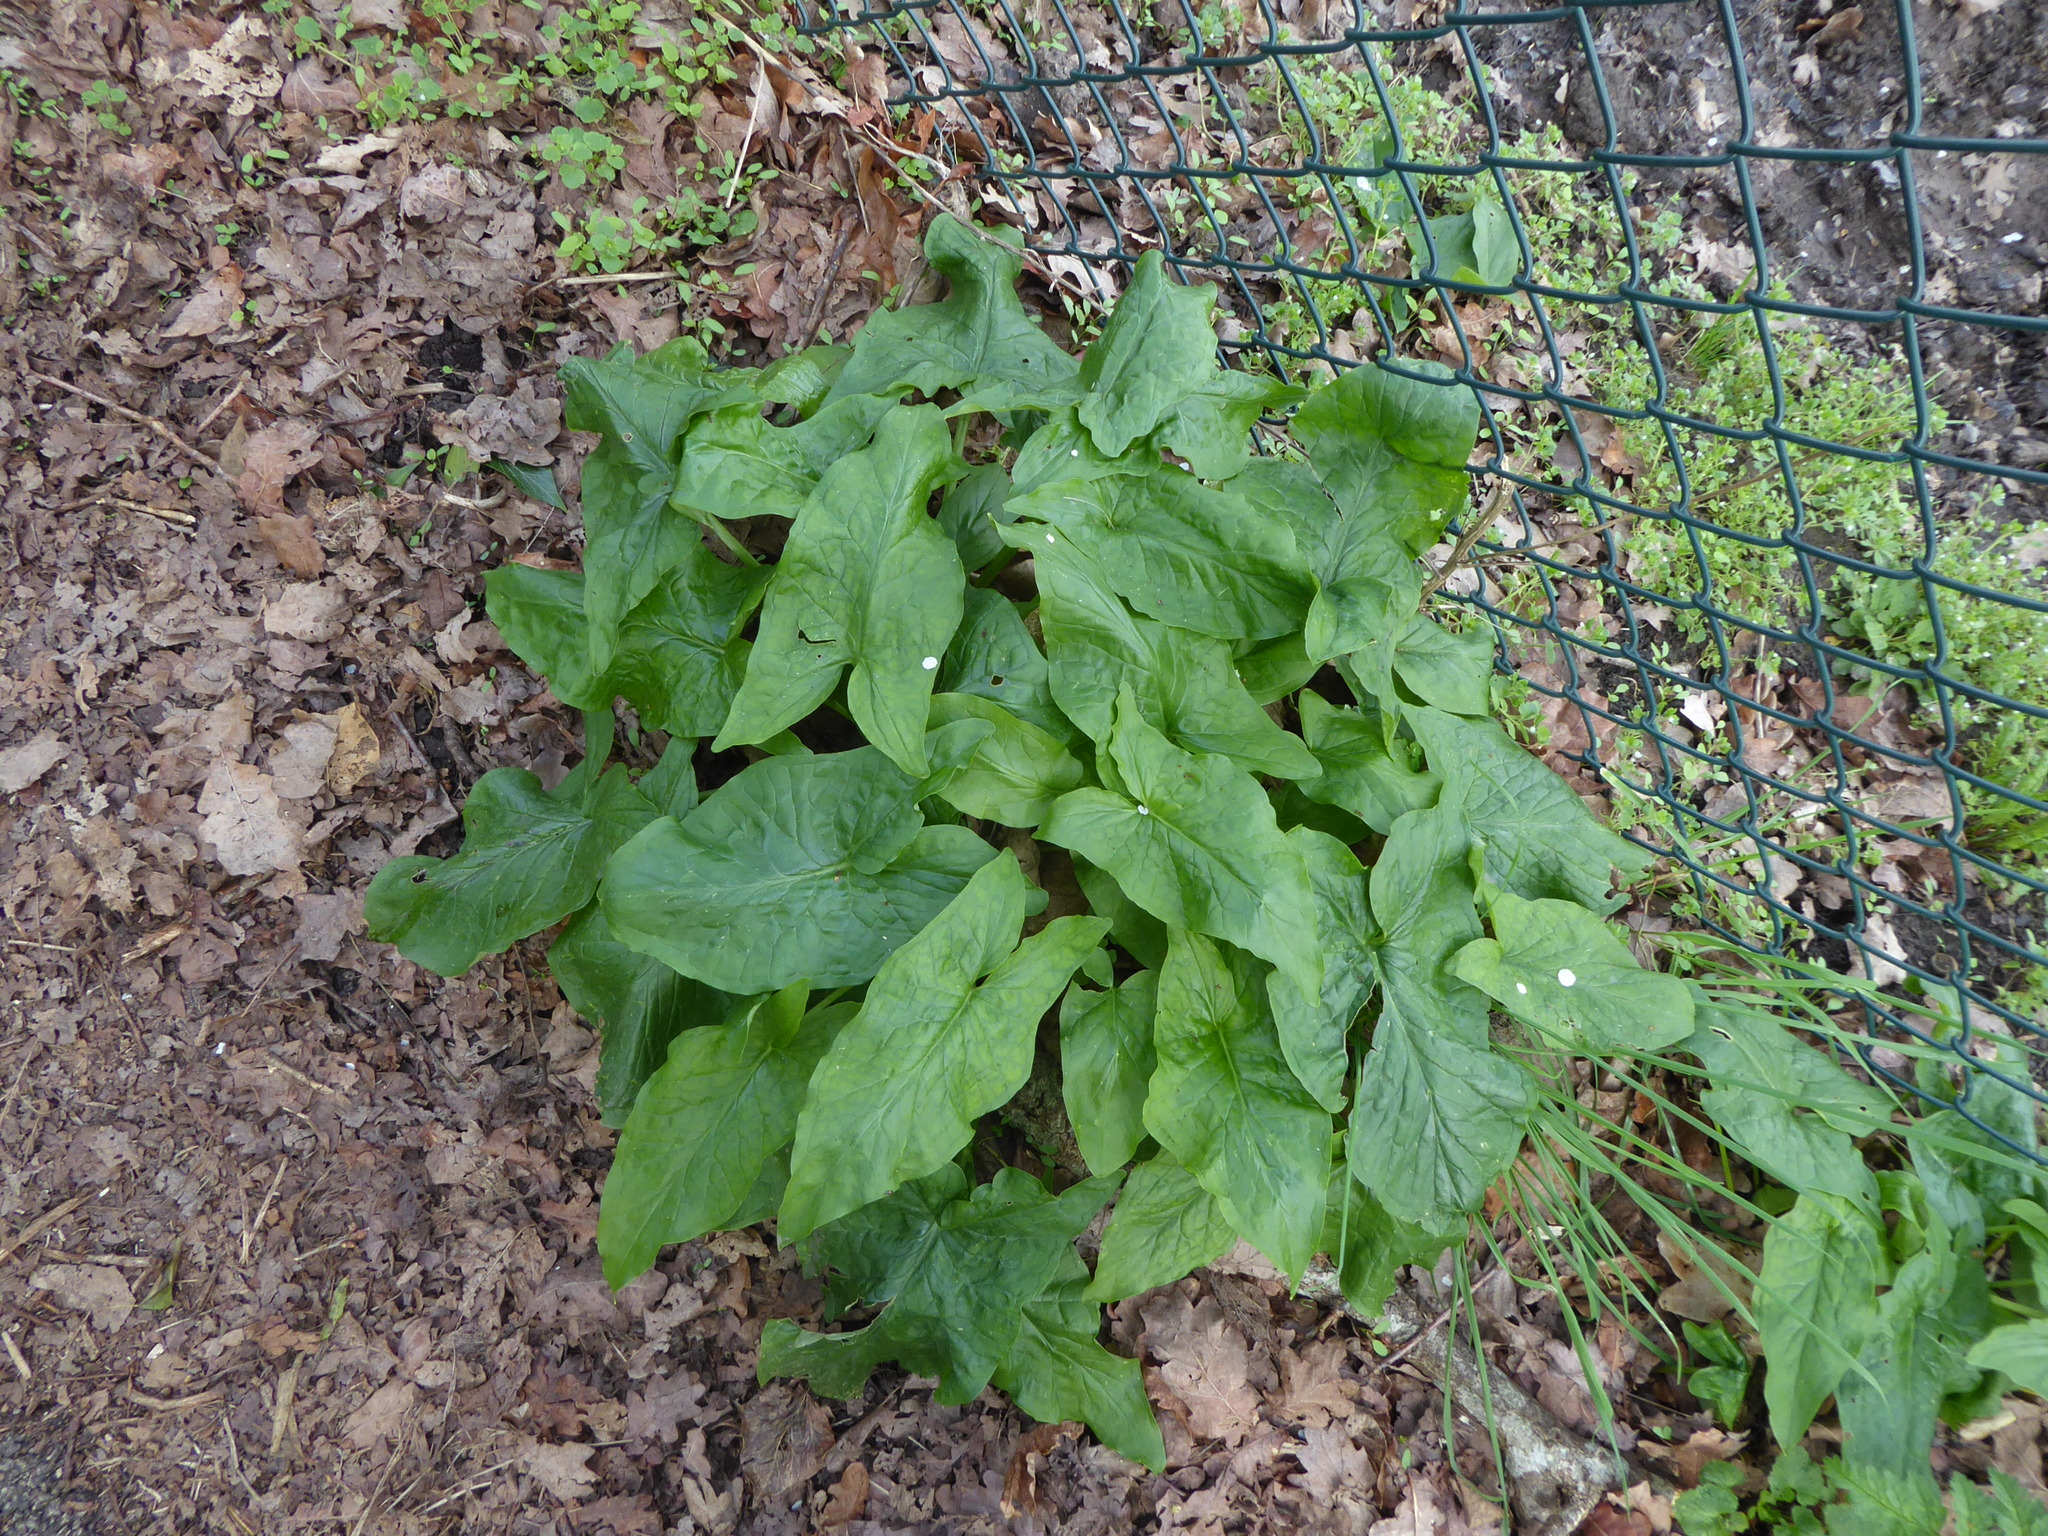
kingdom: Plantae
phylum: Tracheophyta
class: Liliopsida
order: Alismatales
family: Araceae
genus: Arum
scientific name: Arum maculatum
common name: Lords-and-ladies
